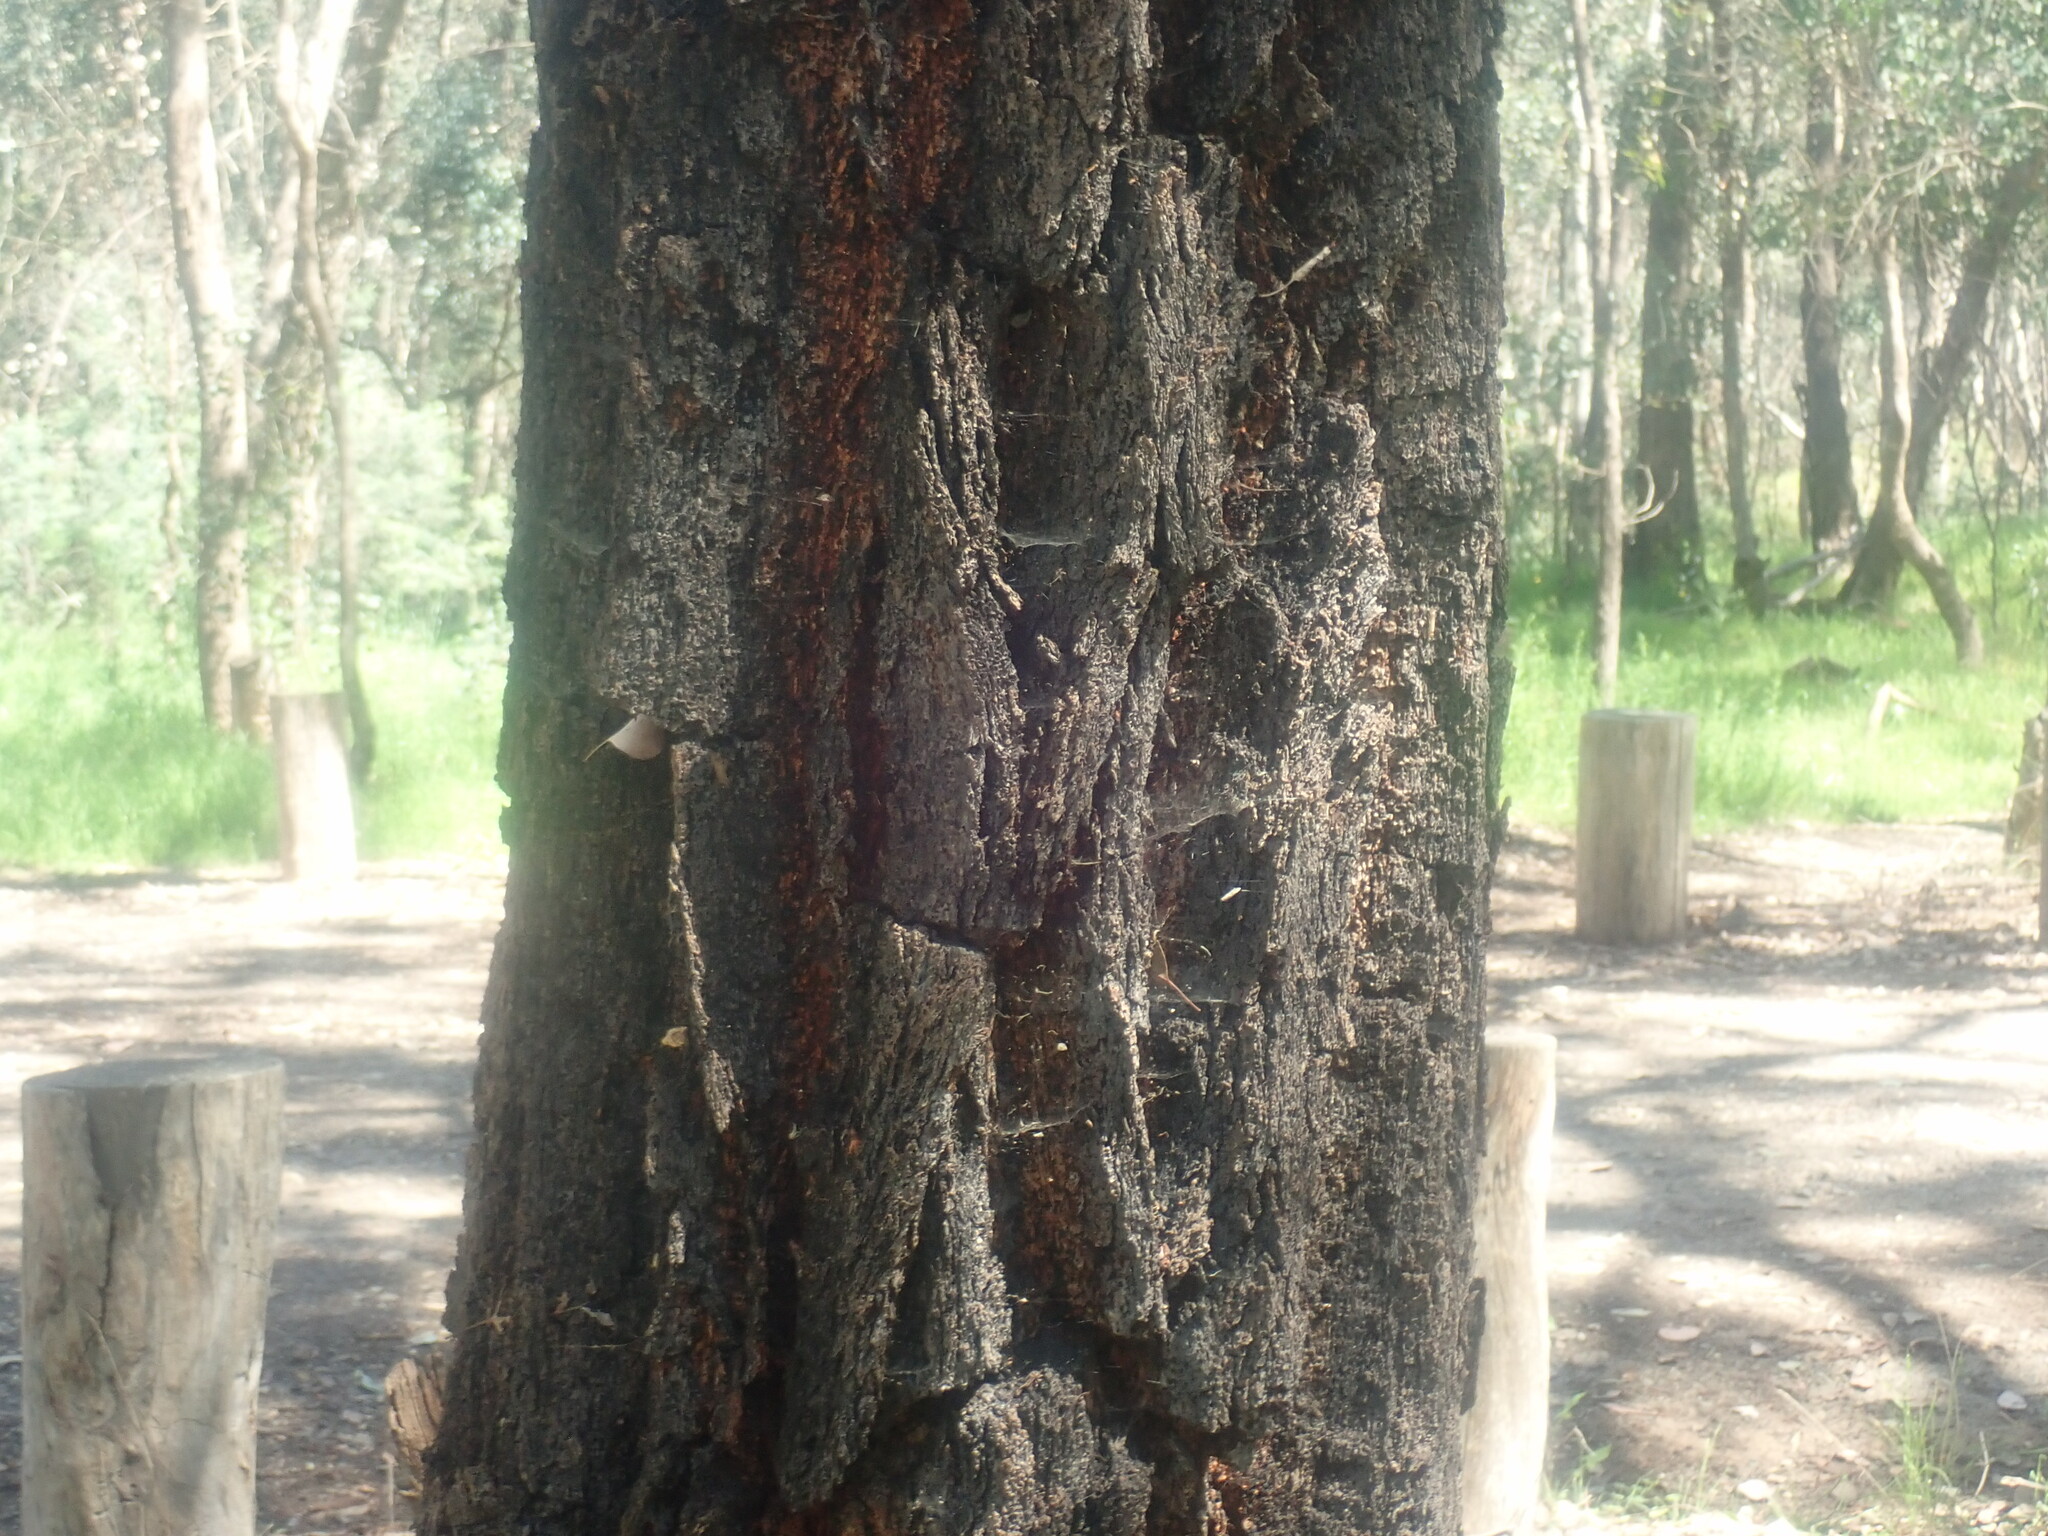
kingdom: Plantae
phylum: Tracheophyta
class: Magnoliopsida
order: Myrtales
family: Myrtaceae
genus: Eucalyptus
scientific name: Eucalyptus sideroxylon
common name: Red ironbark
